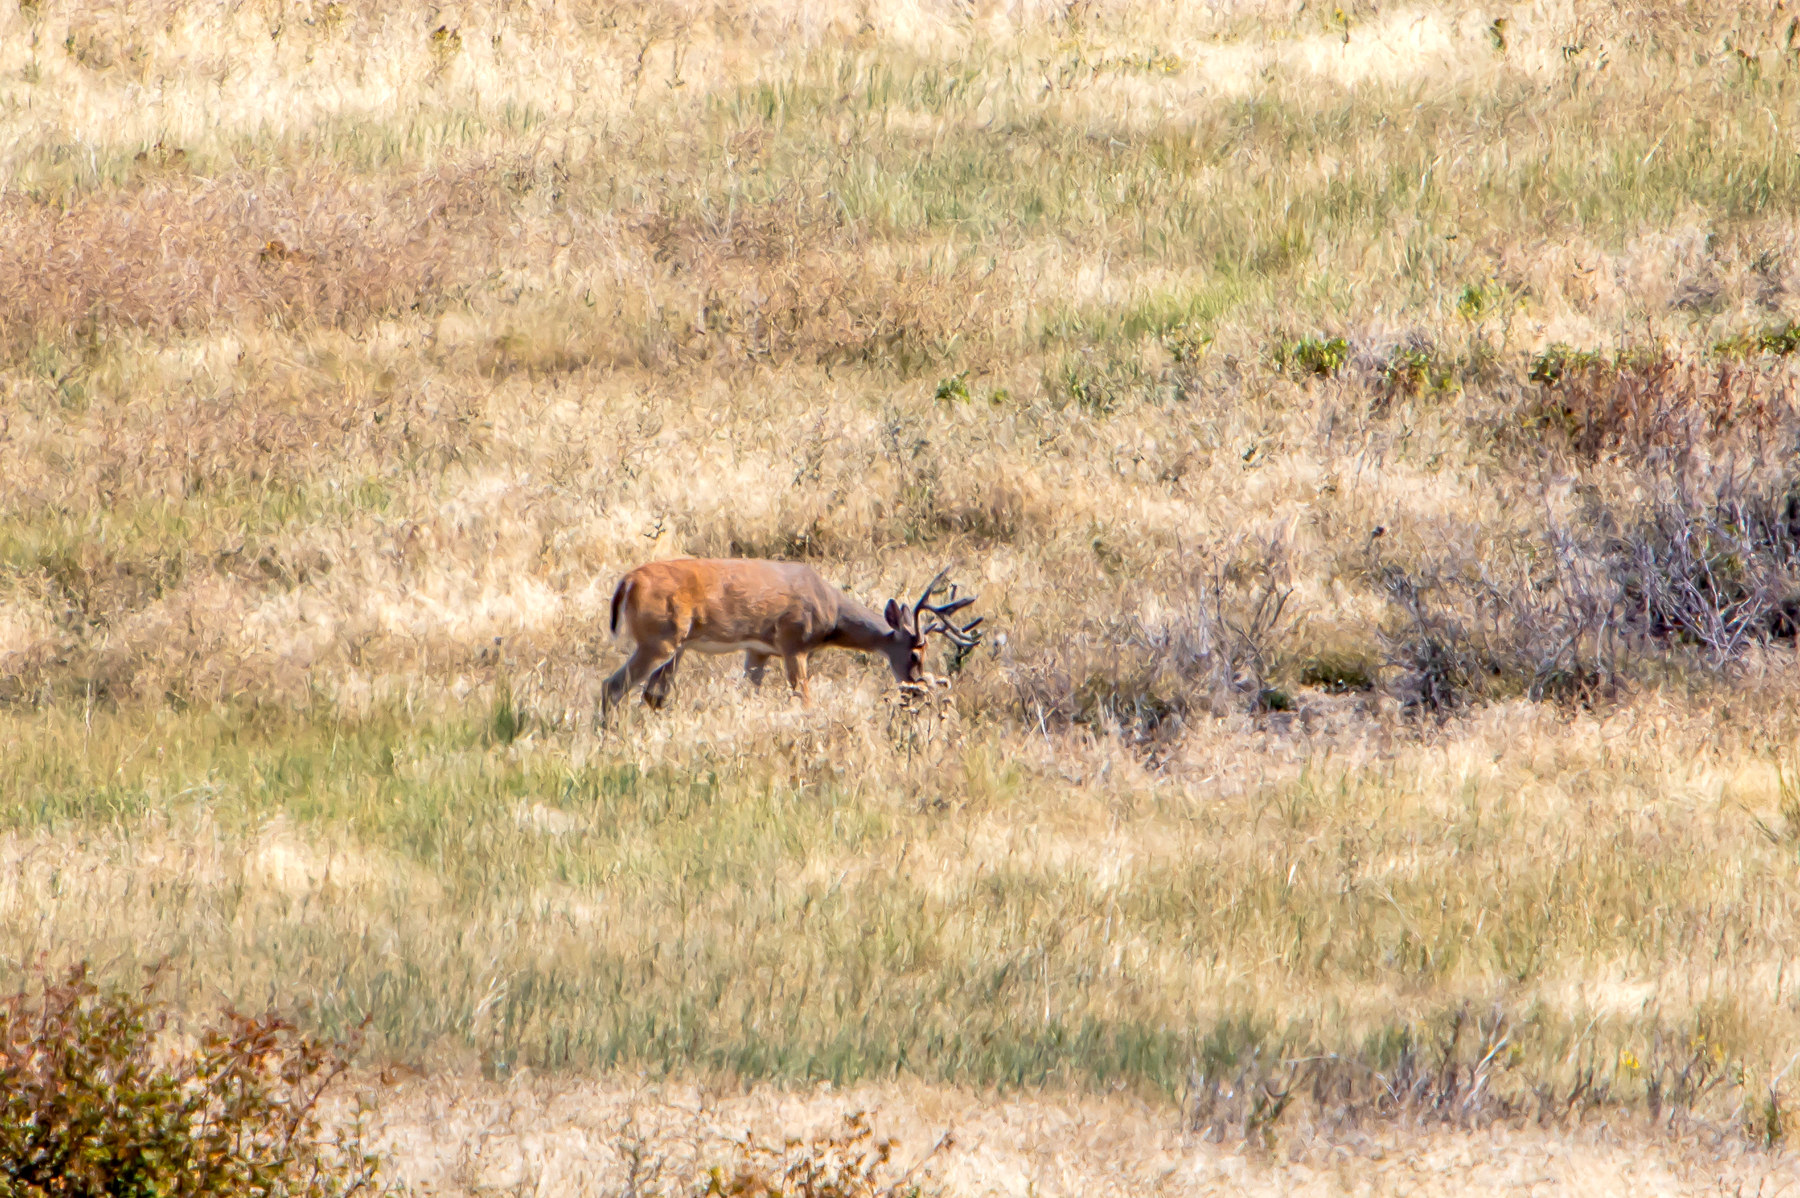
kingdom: Animalia
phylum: Chordata
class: Mammalia
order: Artiodactyla
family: Cervidae
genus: Odocoileus
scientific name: Odocoileus virginianus
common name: White-tailed deer
